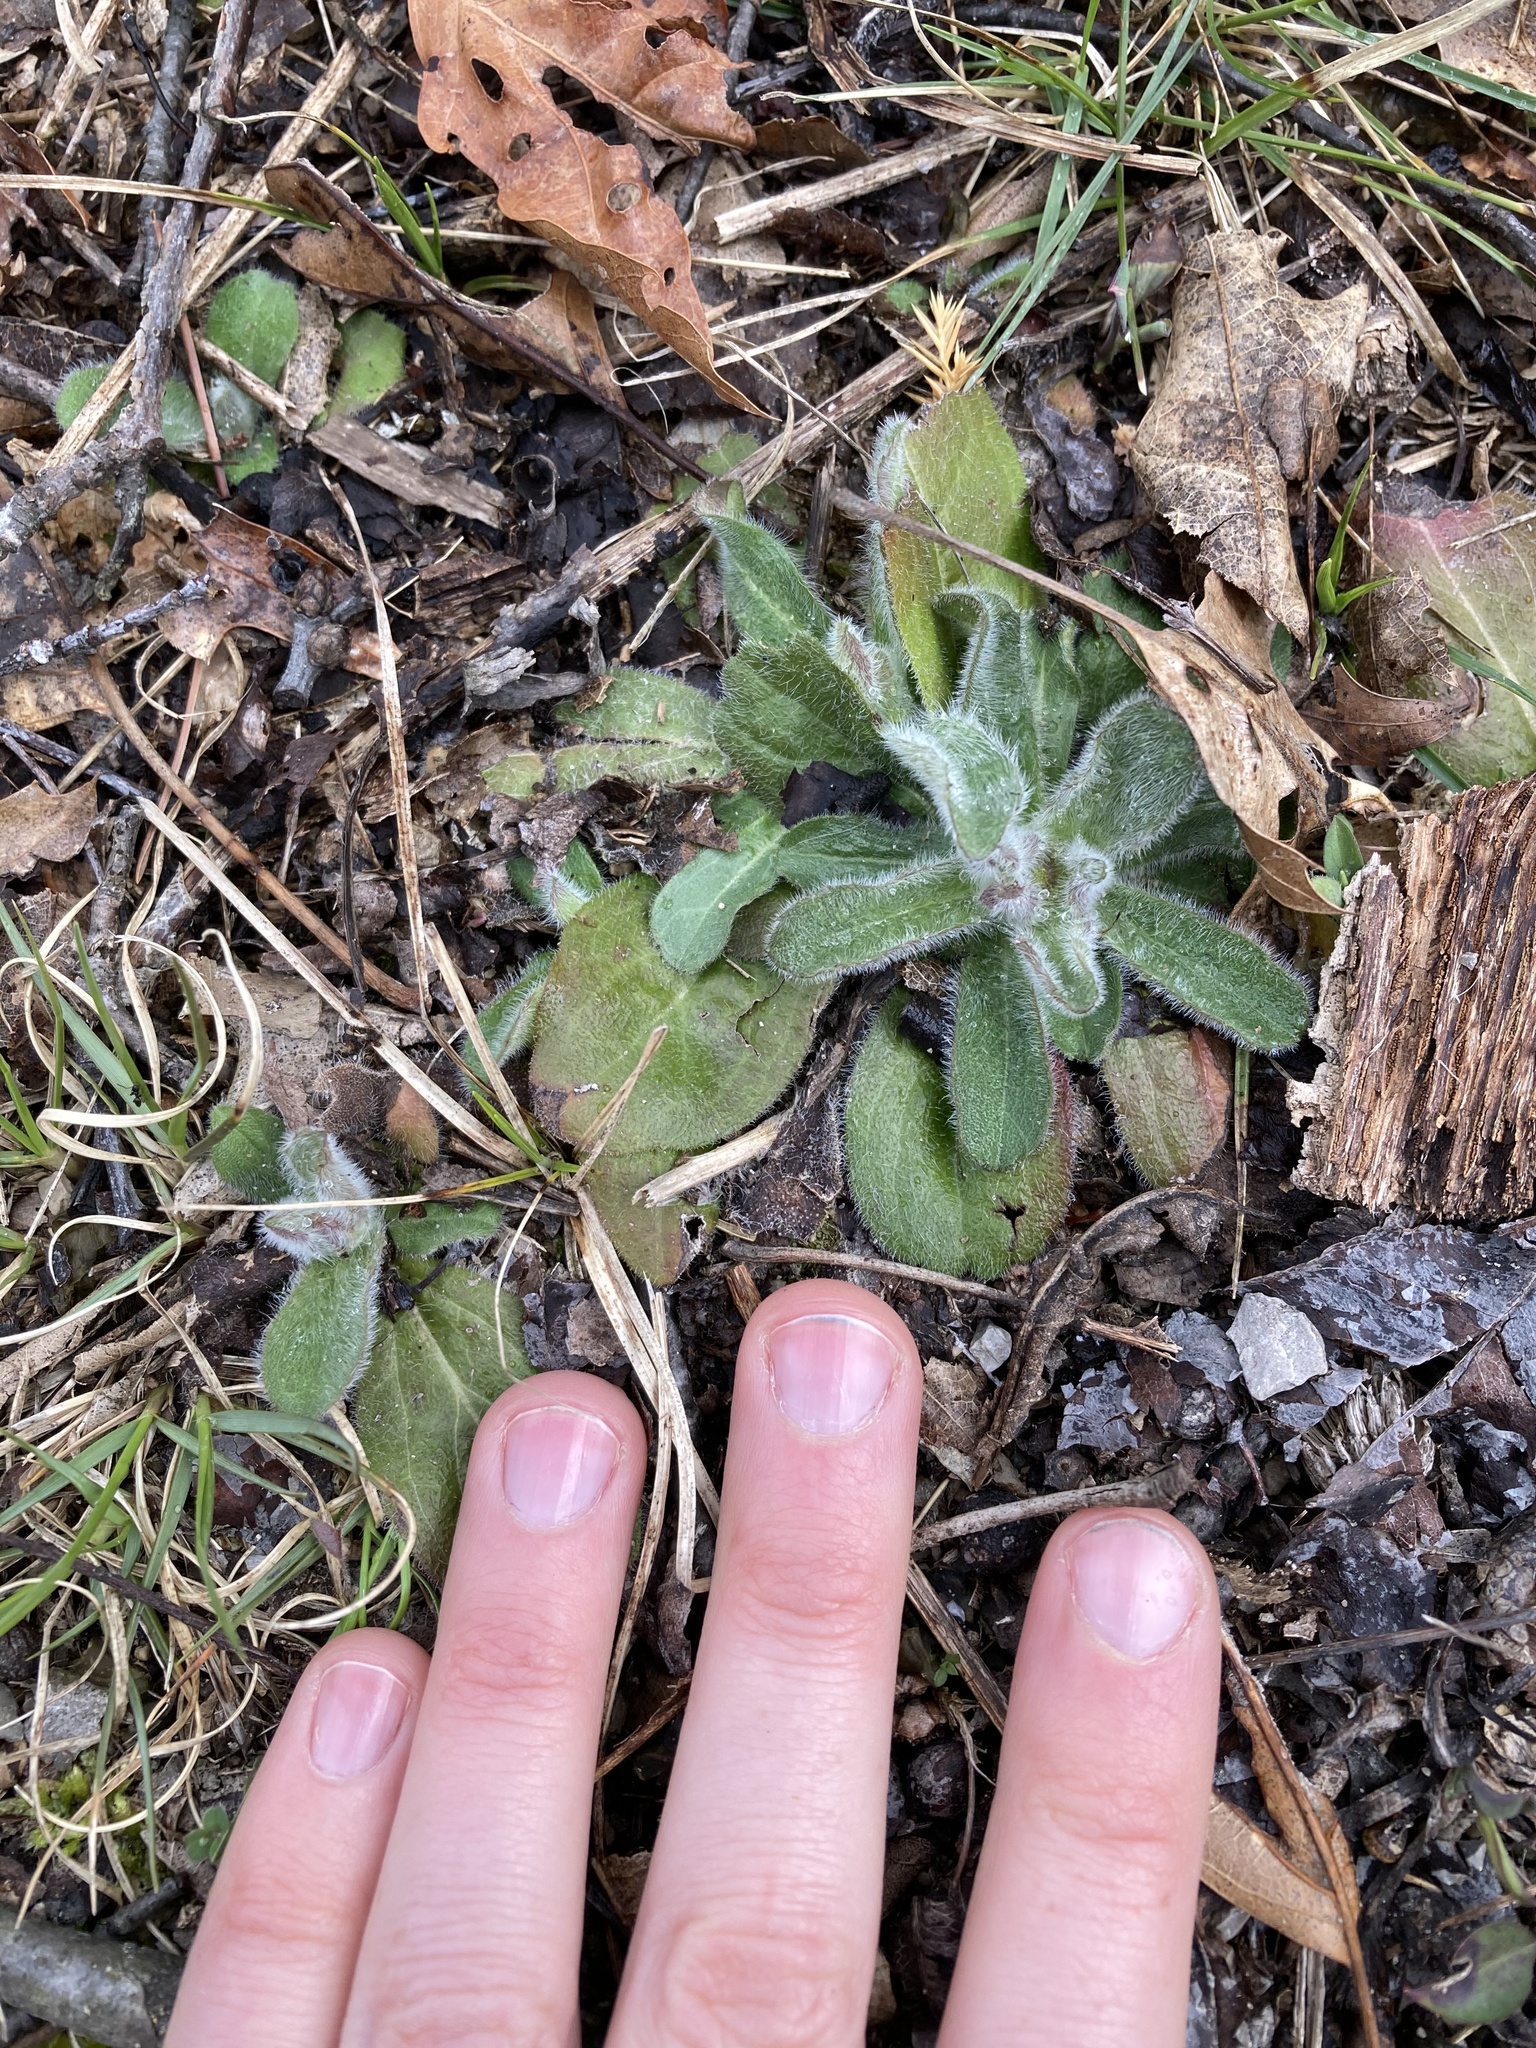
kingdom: Plantae
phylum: Tracheophyta
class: Magnoliopsida
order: Asterales
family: Asteraceae
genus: Erigeron
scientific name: Erigeron pulchellus
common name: Hairy fleabane
